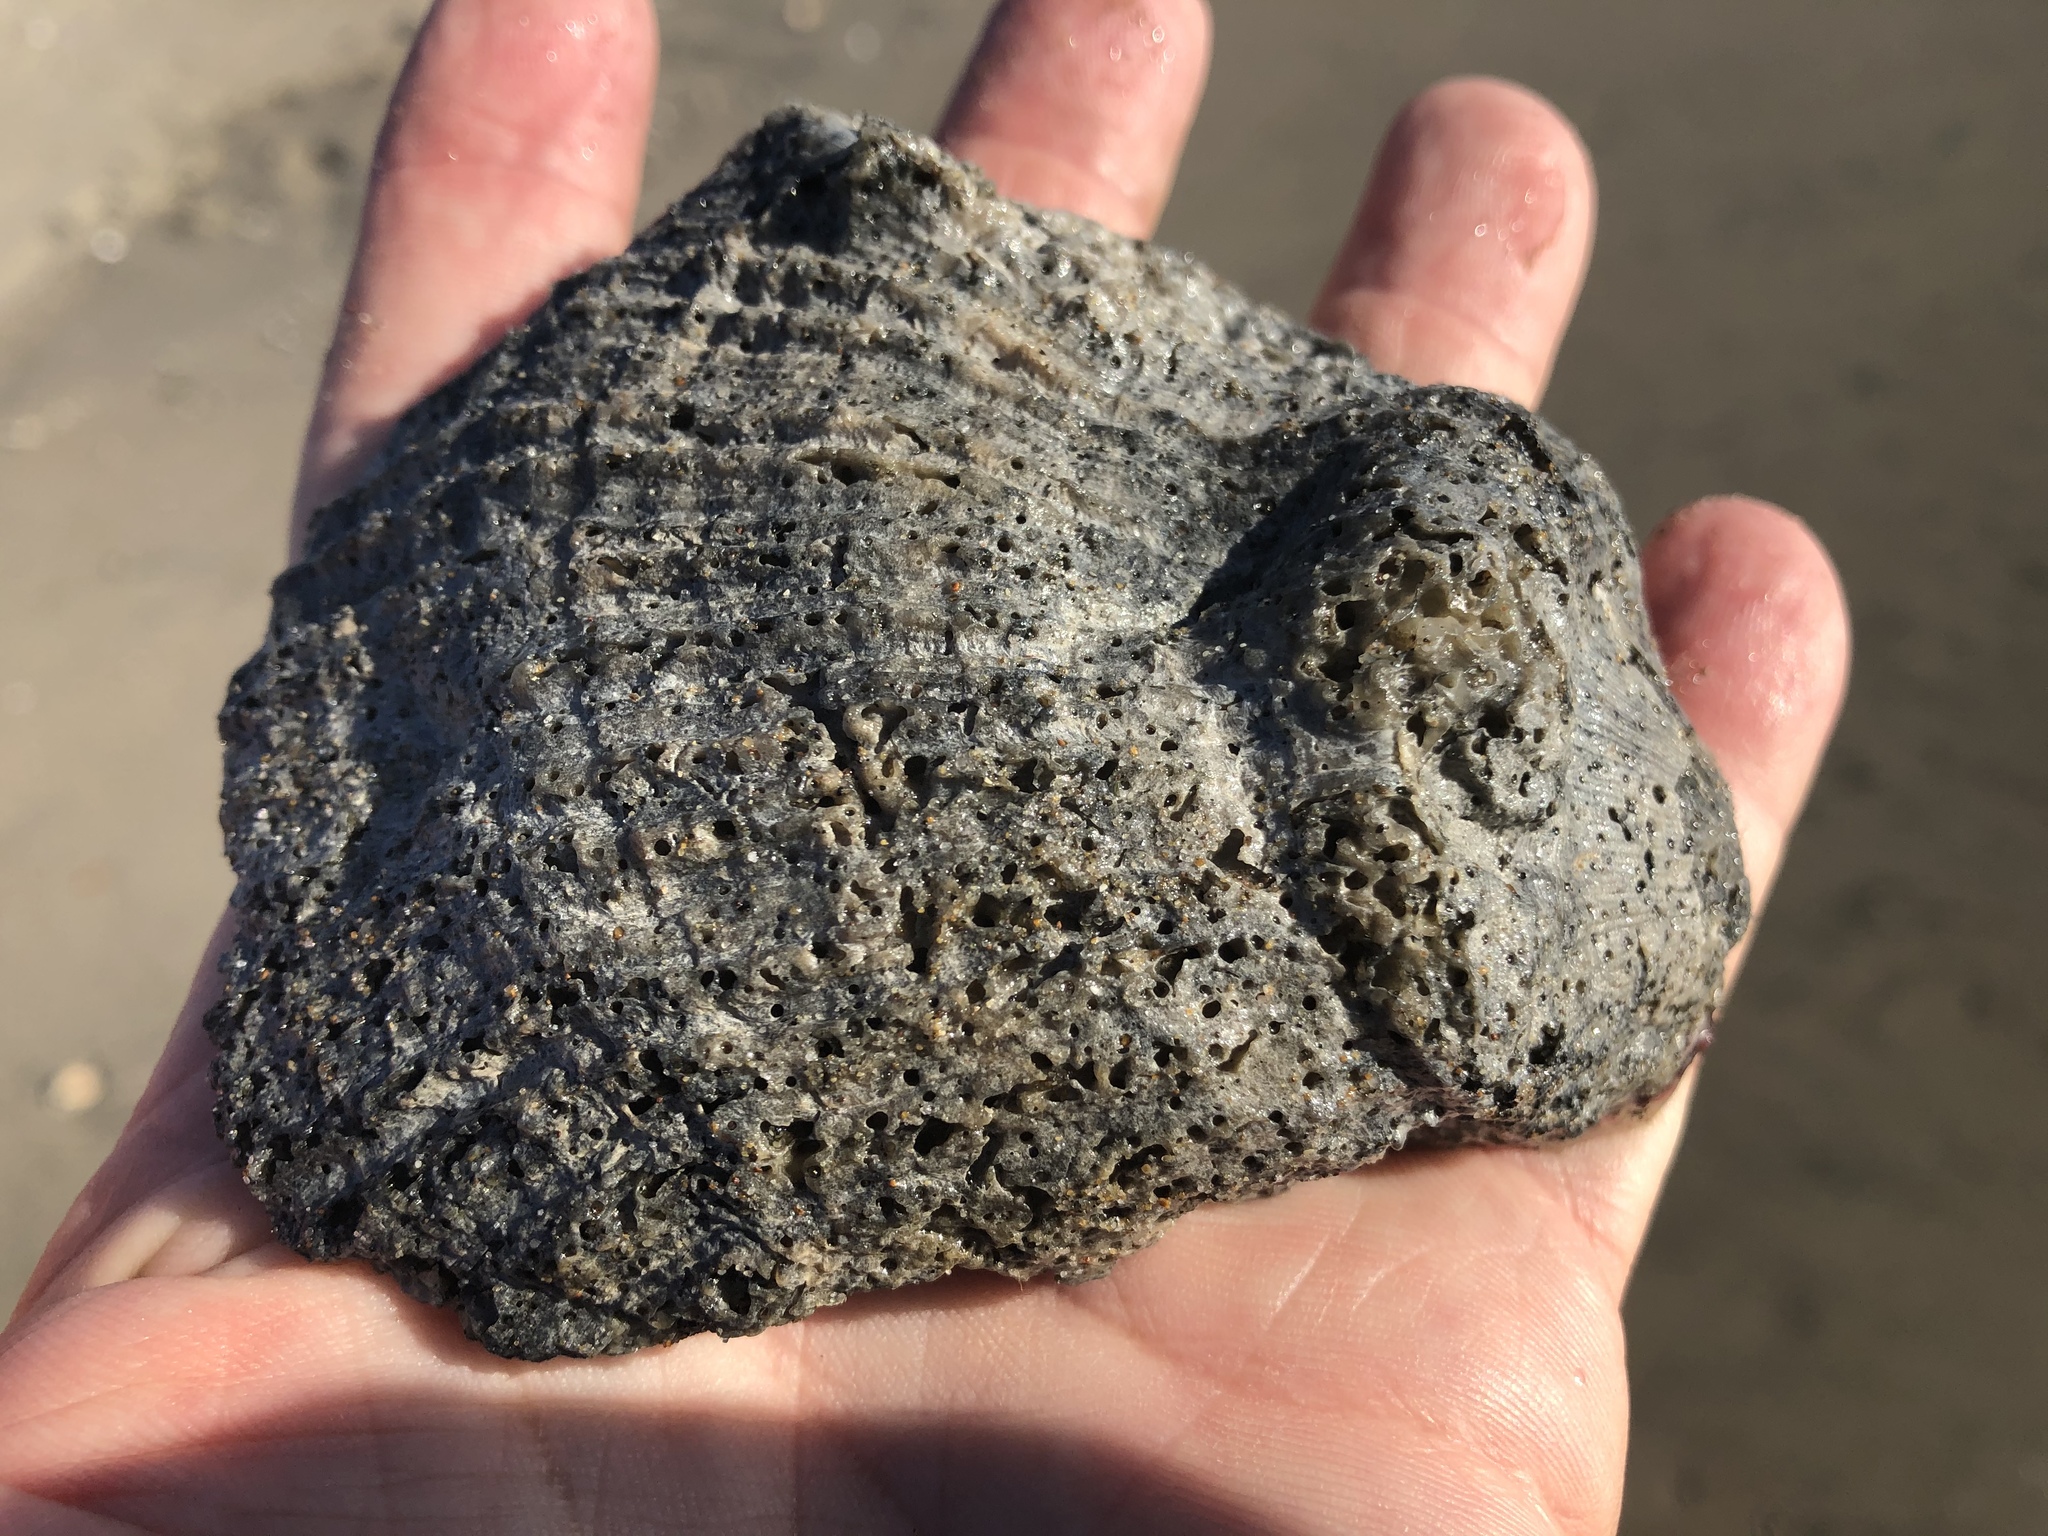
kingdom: Animalia
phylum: Mollusca
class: Bivalvia
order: Pectinida
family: Pectinidae
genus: Crassadoma
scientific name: Crassadoma gigantea
